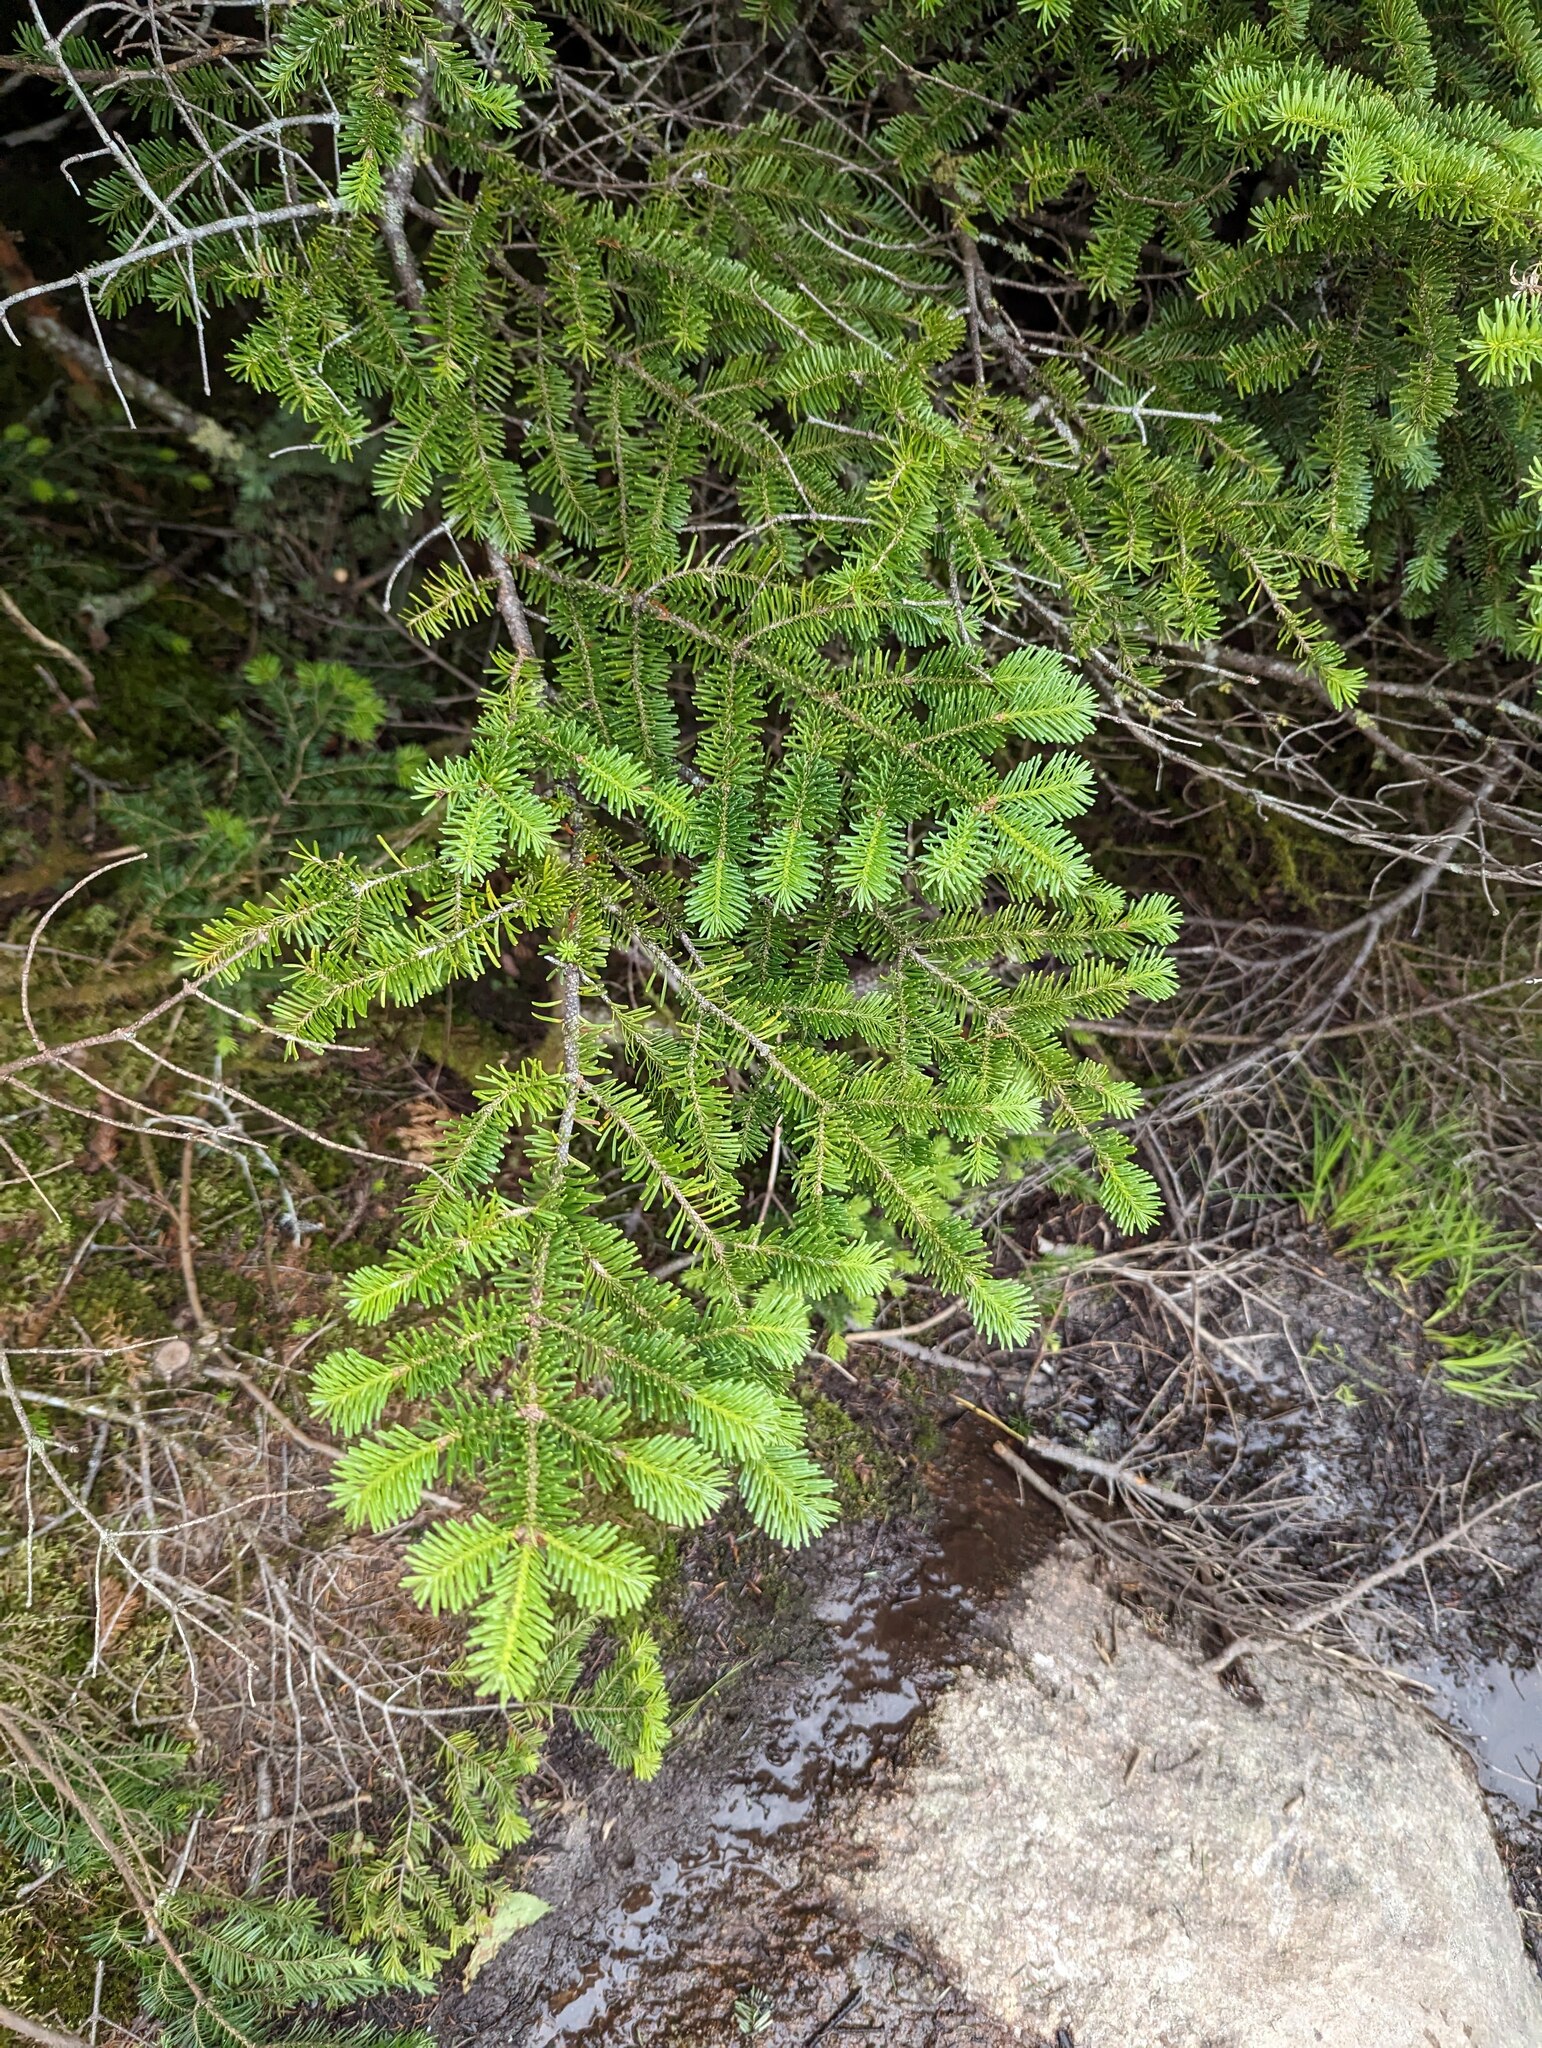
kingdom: Plantae
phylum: Tracheophyta
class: Pinopsida
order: Pinales
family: Pinaceae
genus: Abies
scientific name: Abies balsamea
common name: Balsam fir
